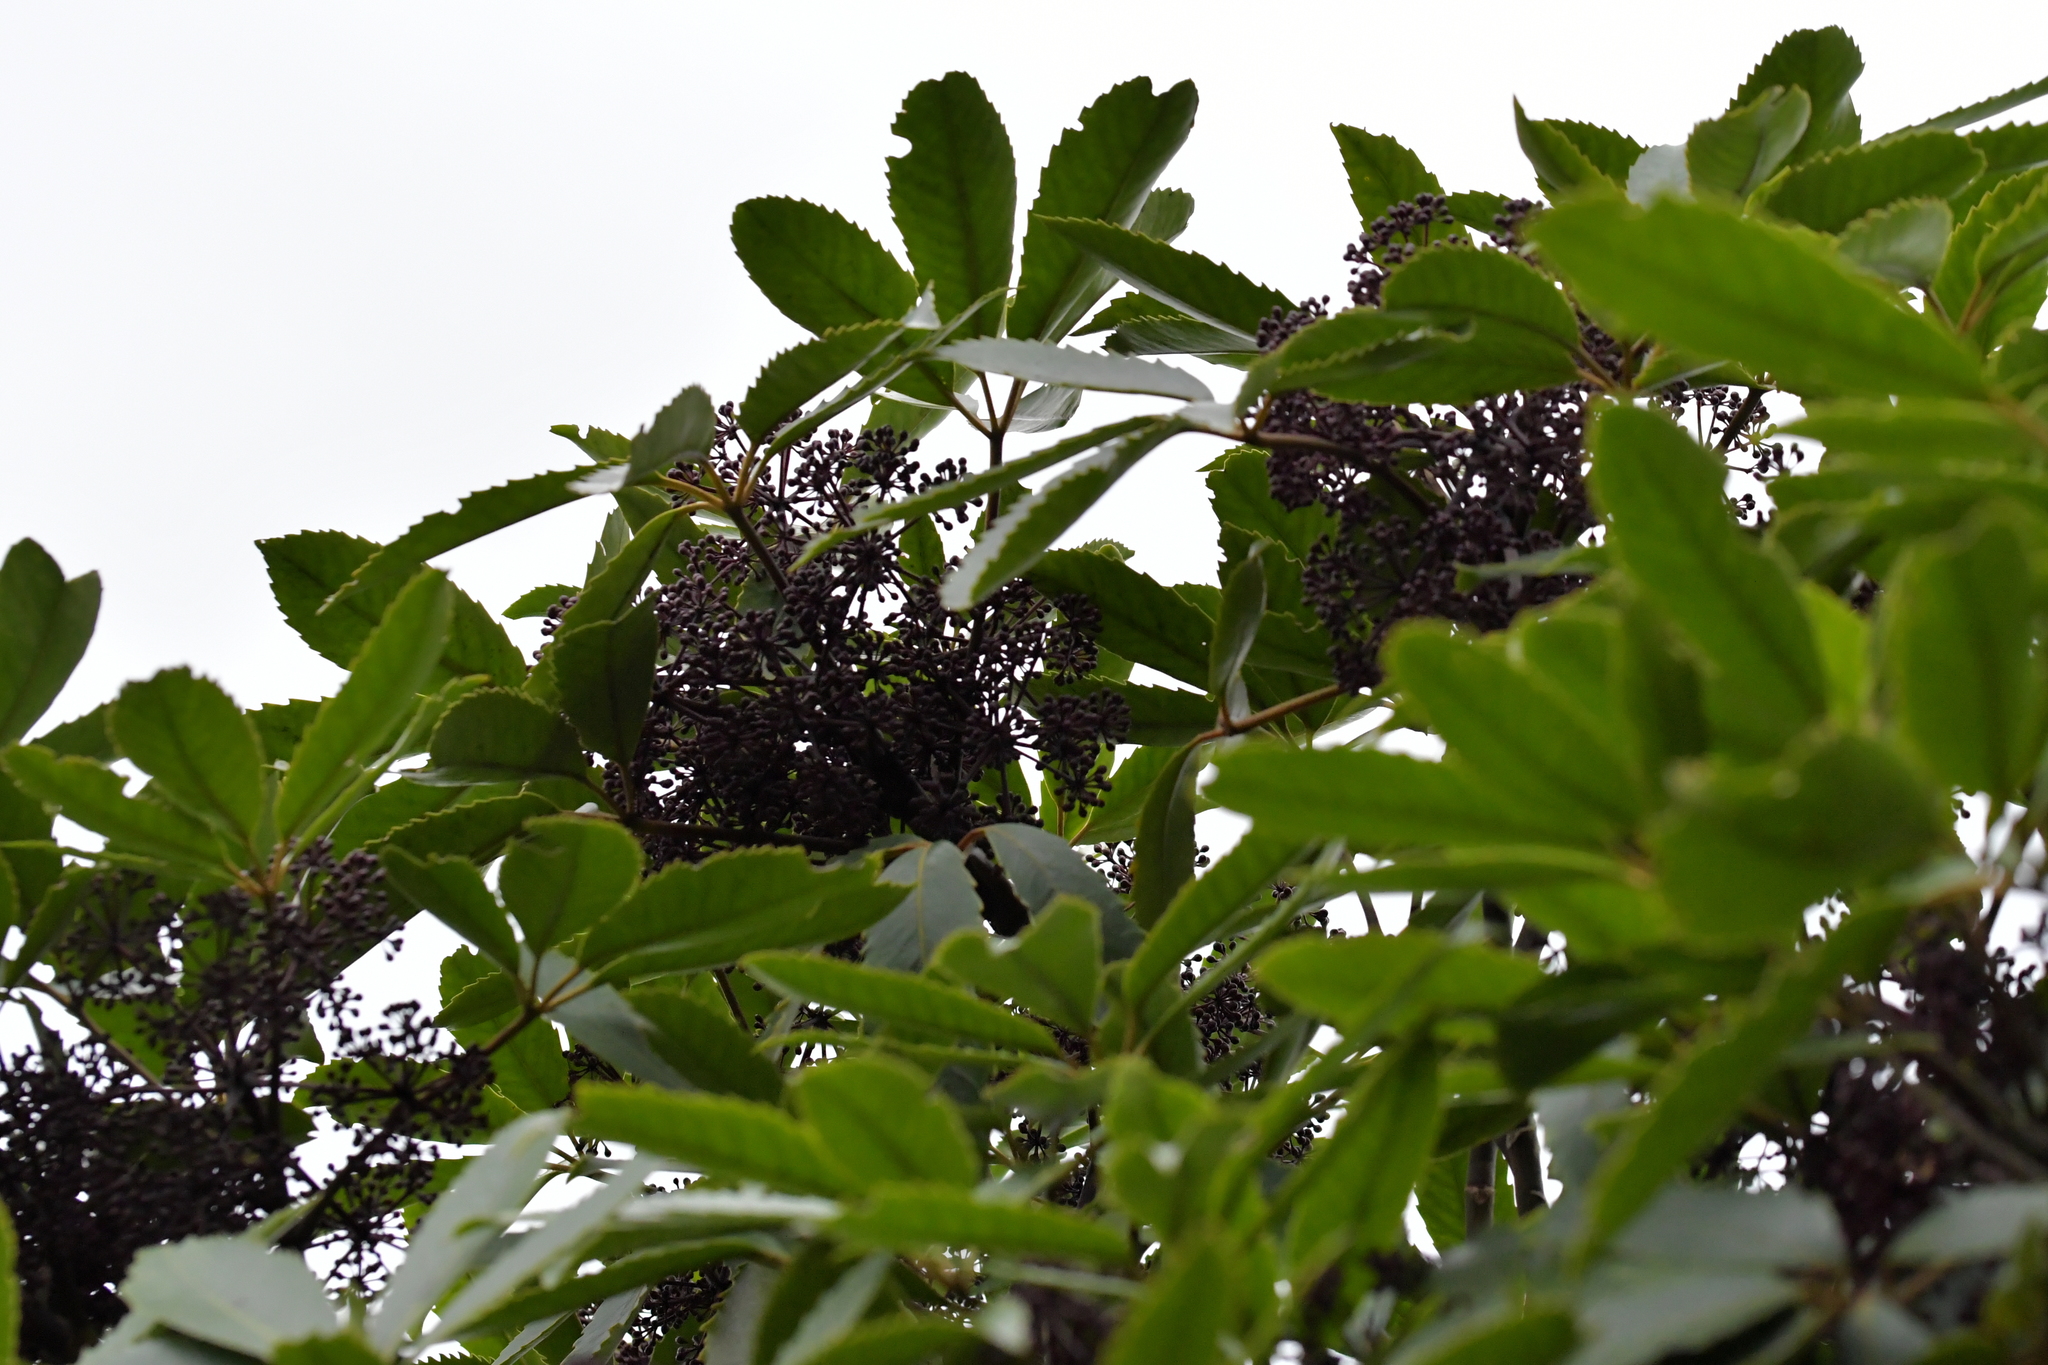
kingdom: Plantae
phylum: Tracheophyta
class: Magnoliopsida
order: Apiales
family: Araliaceae
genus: Neopanax
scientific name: Neopanax arboreus
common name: Five-fingers
